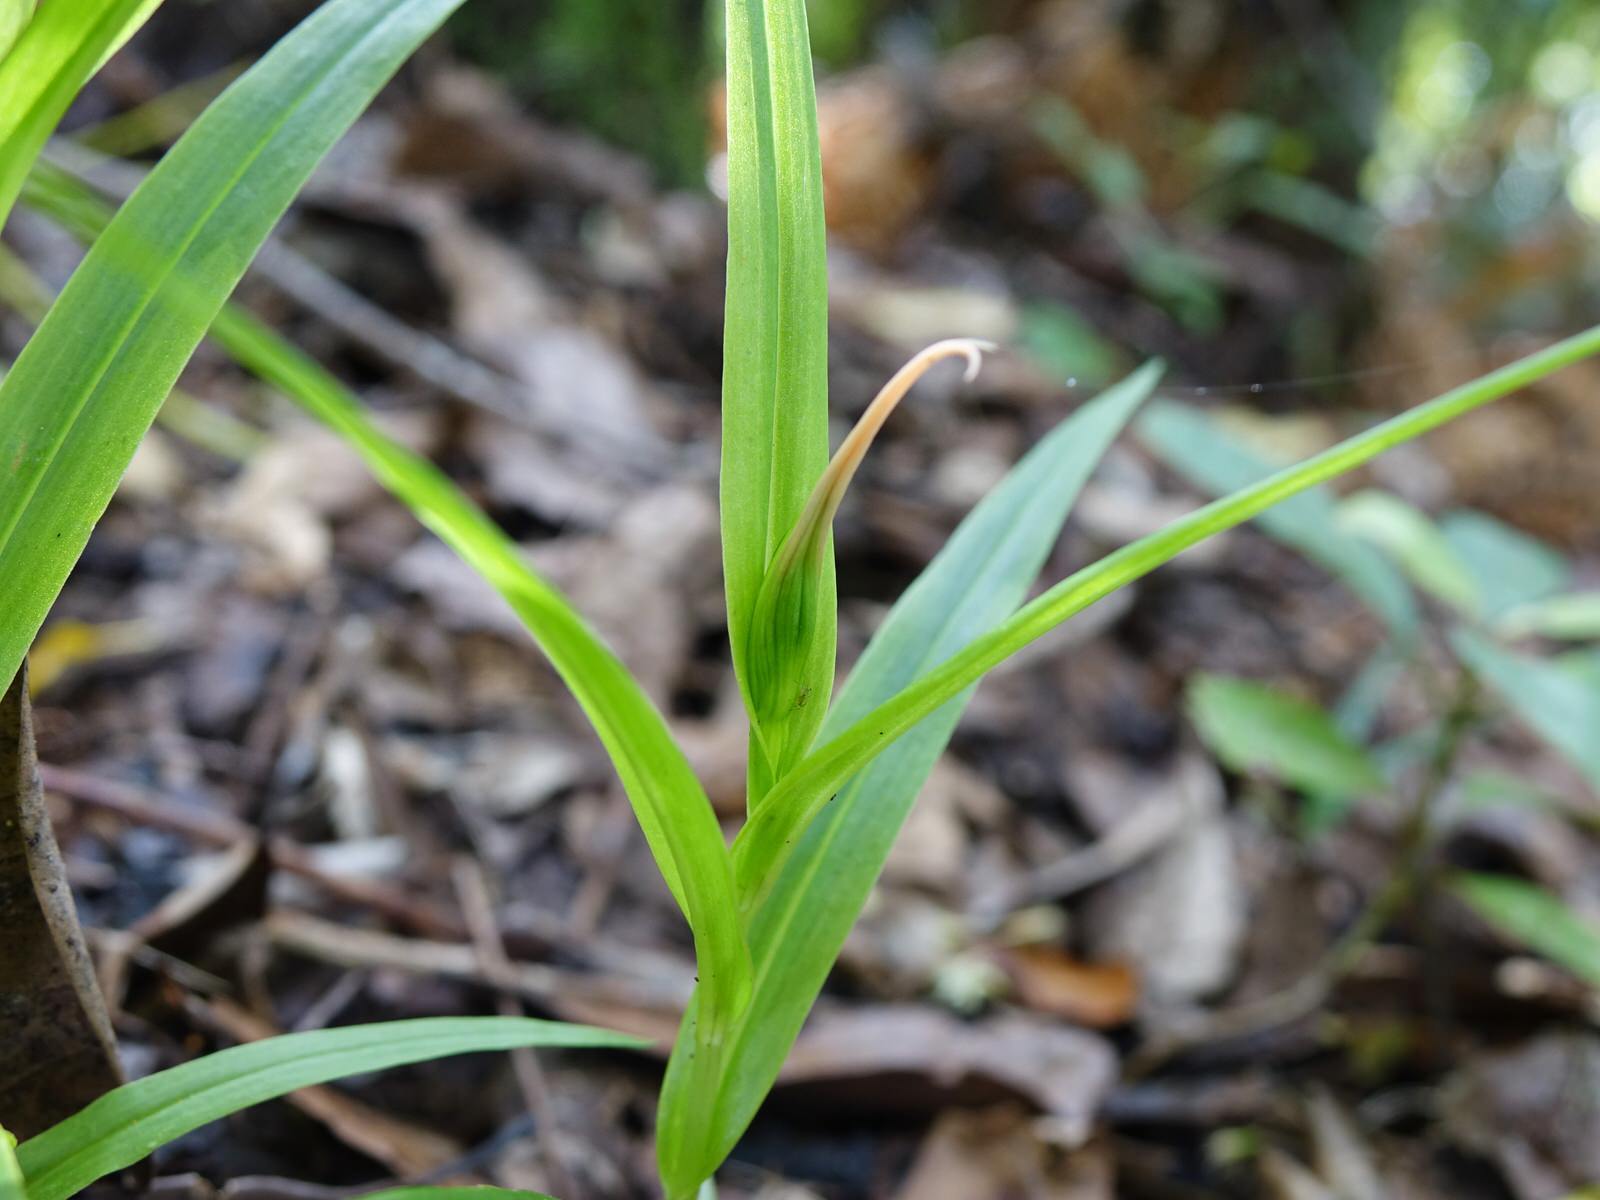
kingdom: Plantae
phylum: Tracheophyta
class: Liliopsida
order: Asparagales
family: Orchidaceae
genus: Pterostylis
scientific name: Pterostylis banksii
